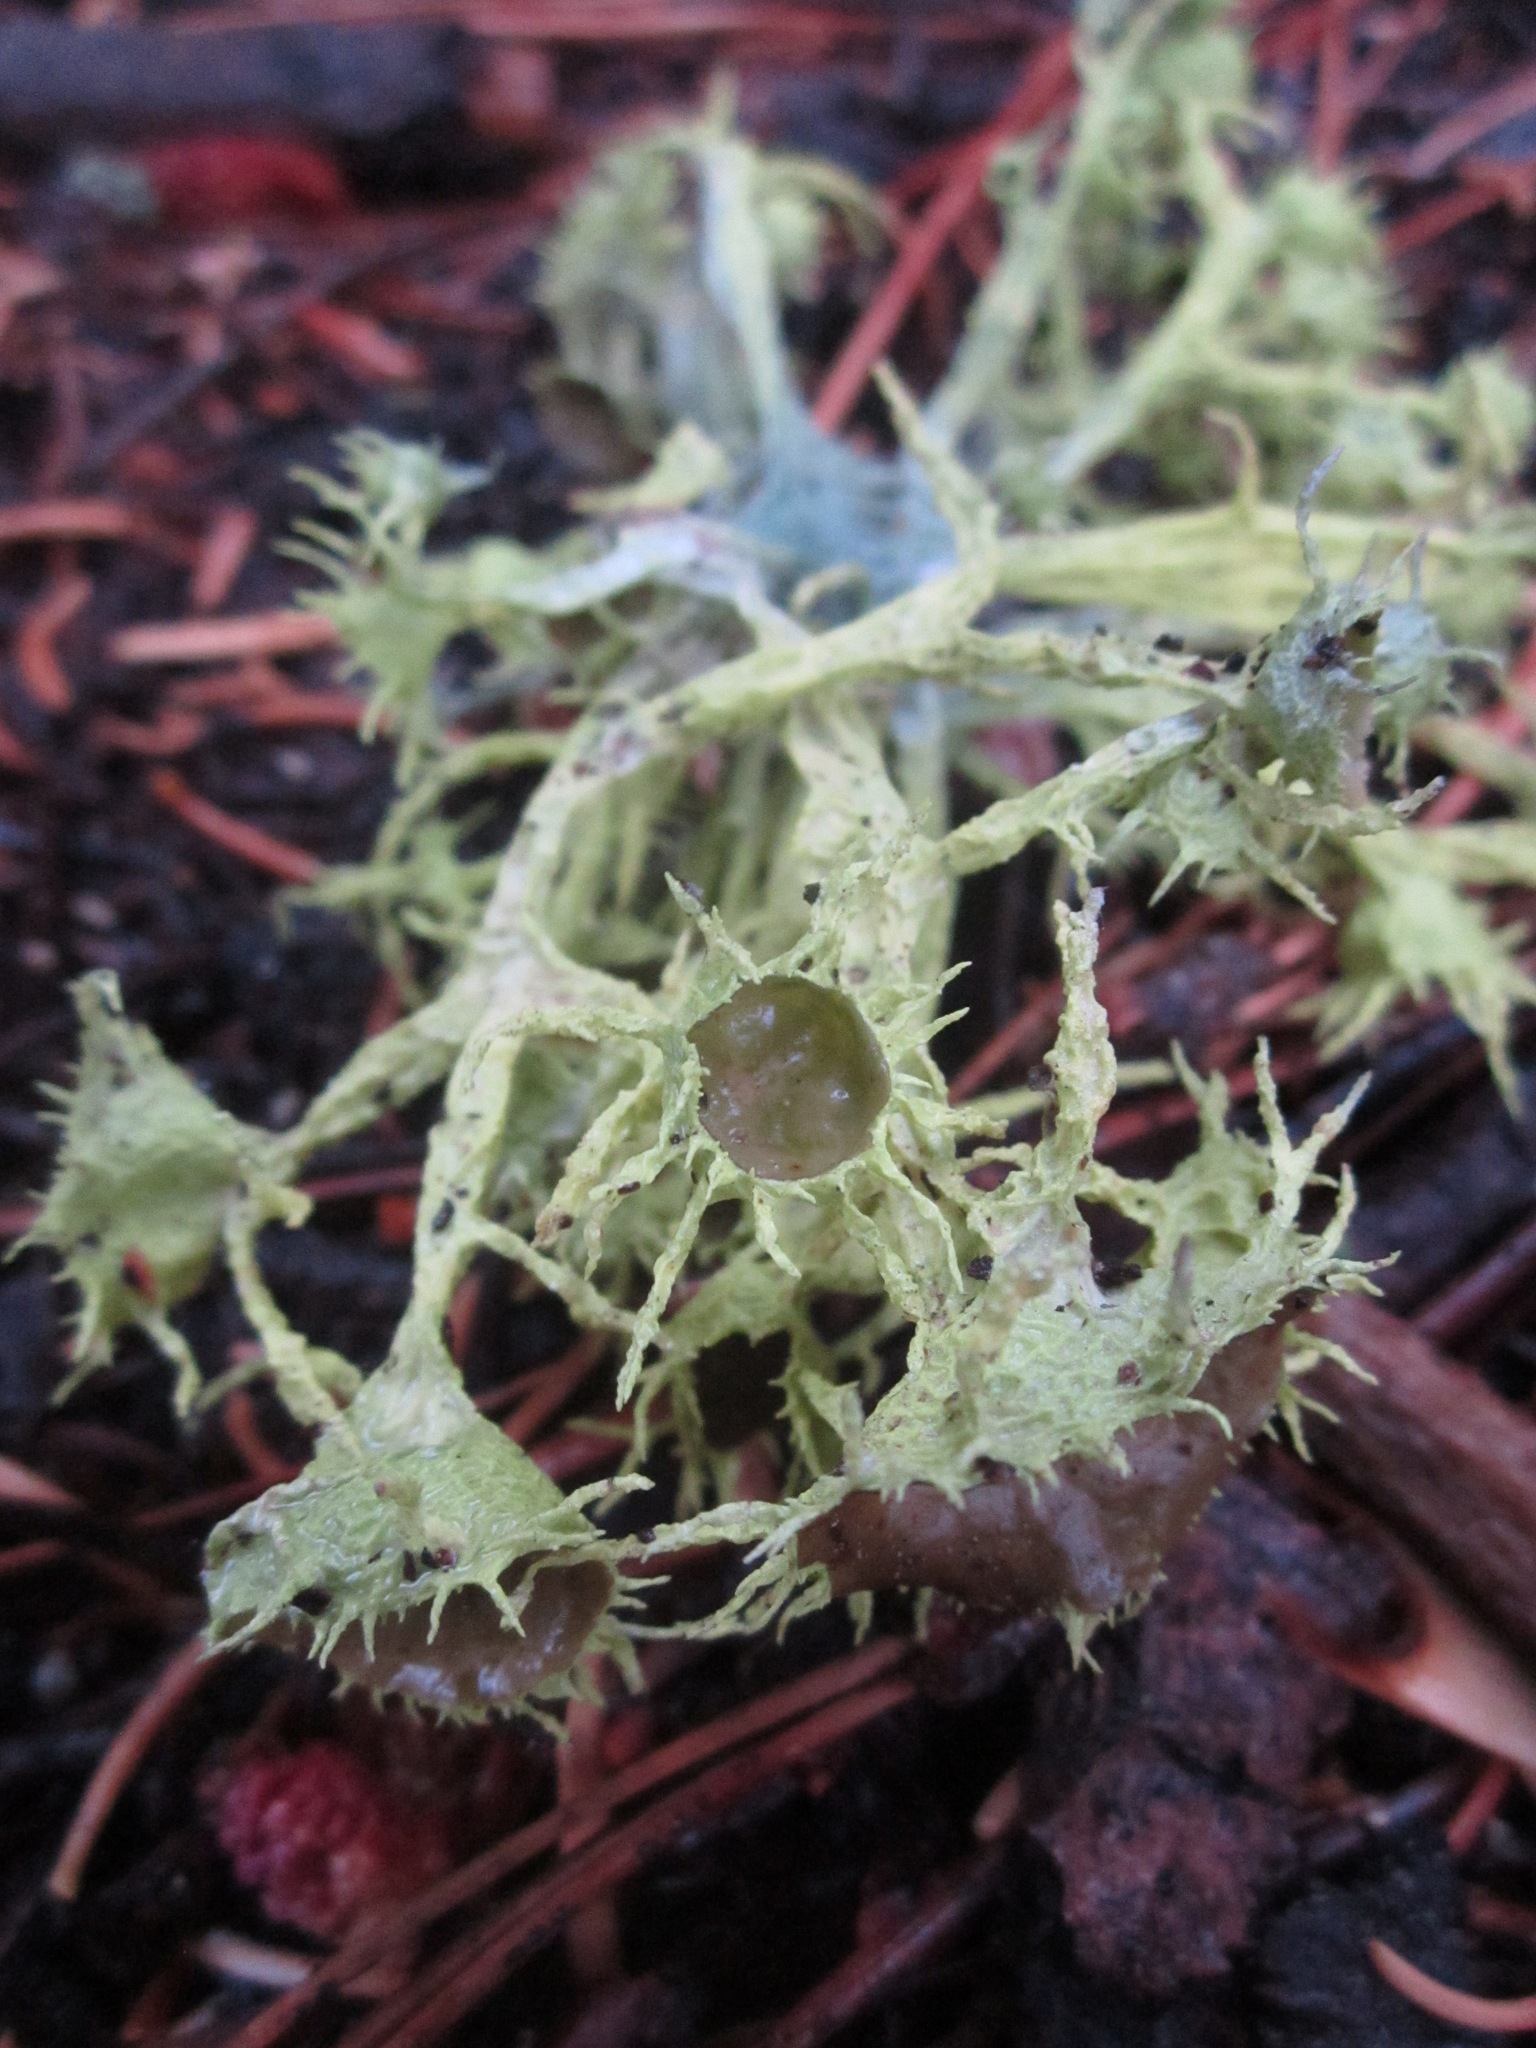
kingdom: Fungi
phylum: Ascomycota
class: Lecanoromycetes
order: Lecanorales
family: Parmeliaceae
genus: Letharia
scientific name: Letharia columbiana
